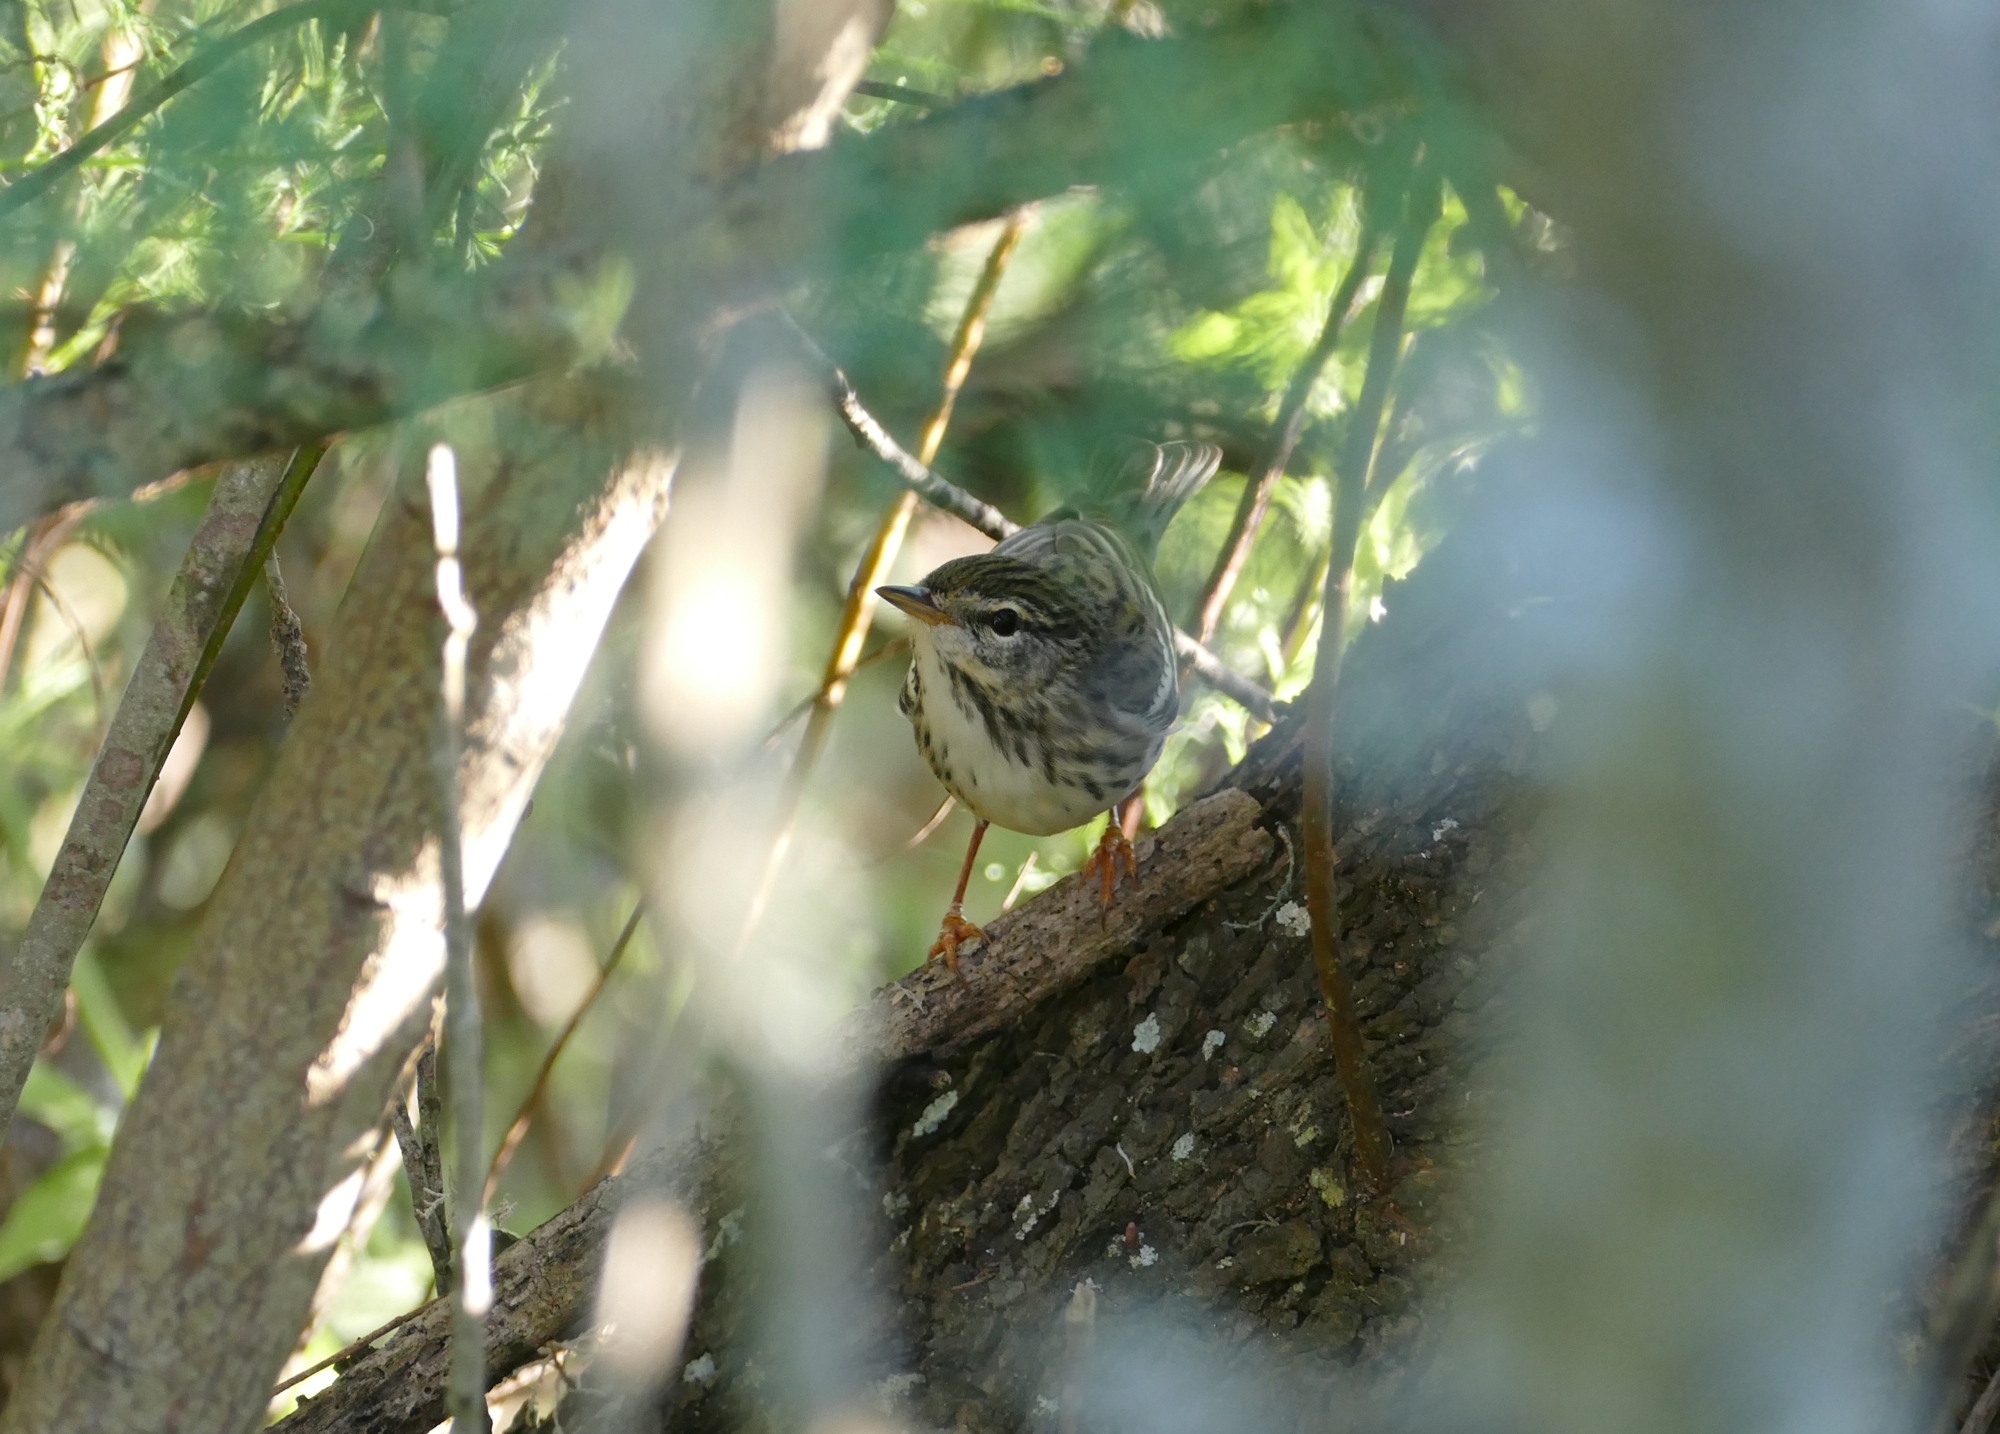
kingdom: Animalia
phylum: Chordata
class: Aves
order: Passeriformes
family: Parulidae
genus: Setophaga
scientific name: Setophaga striata
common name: Blackpoll warbler
